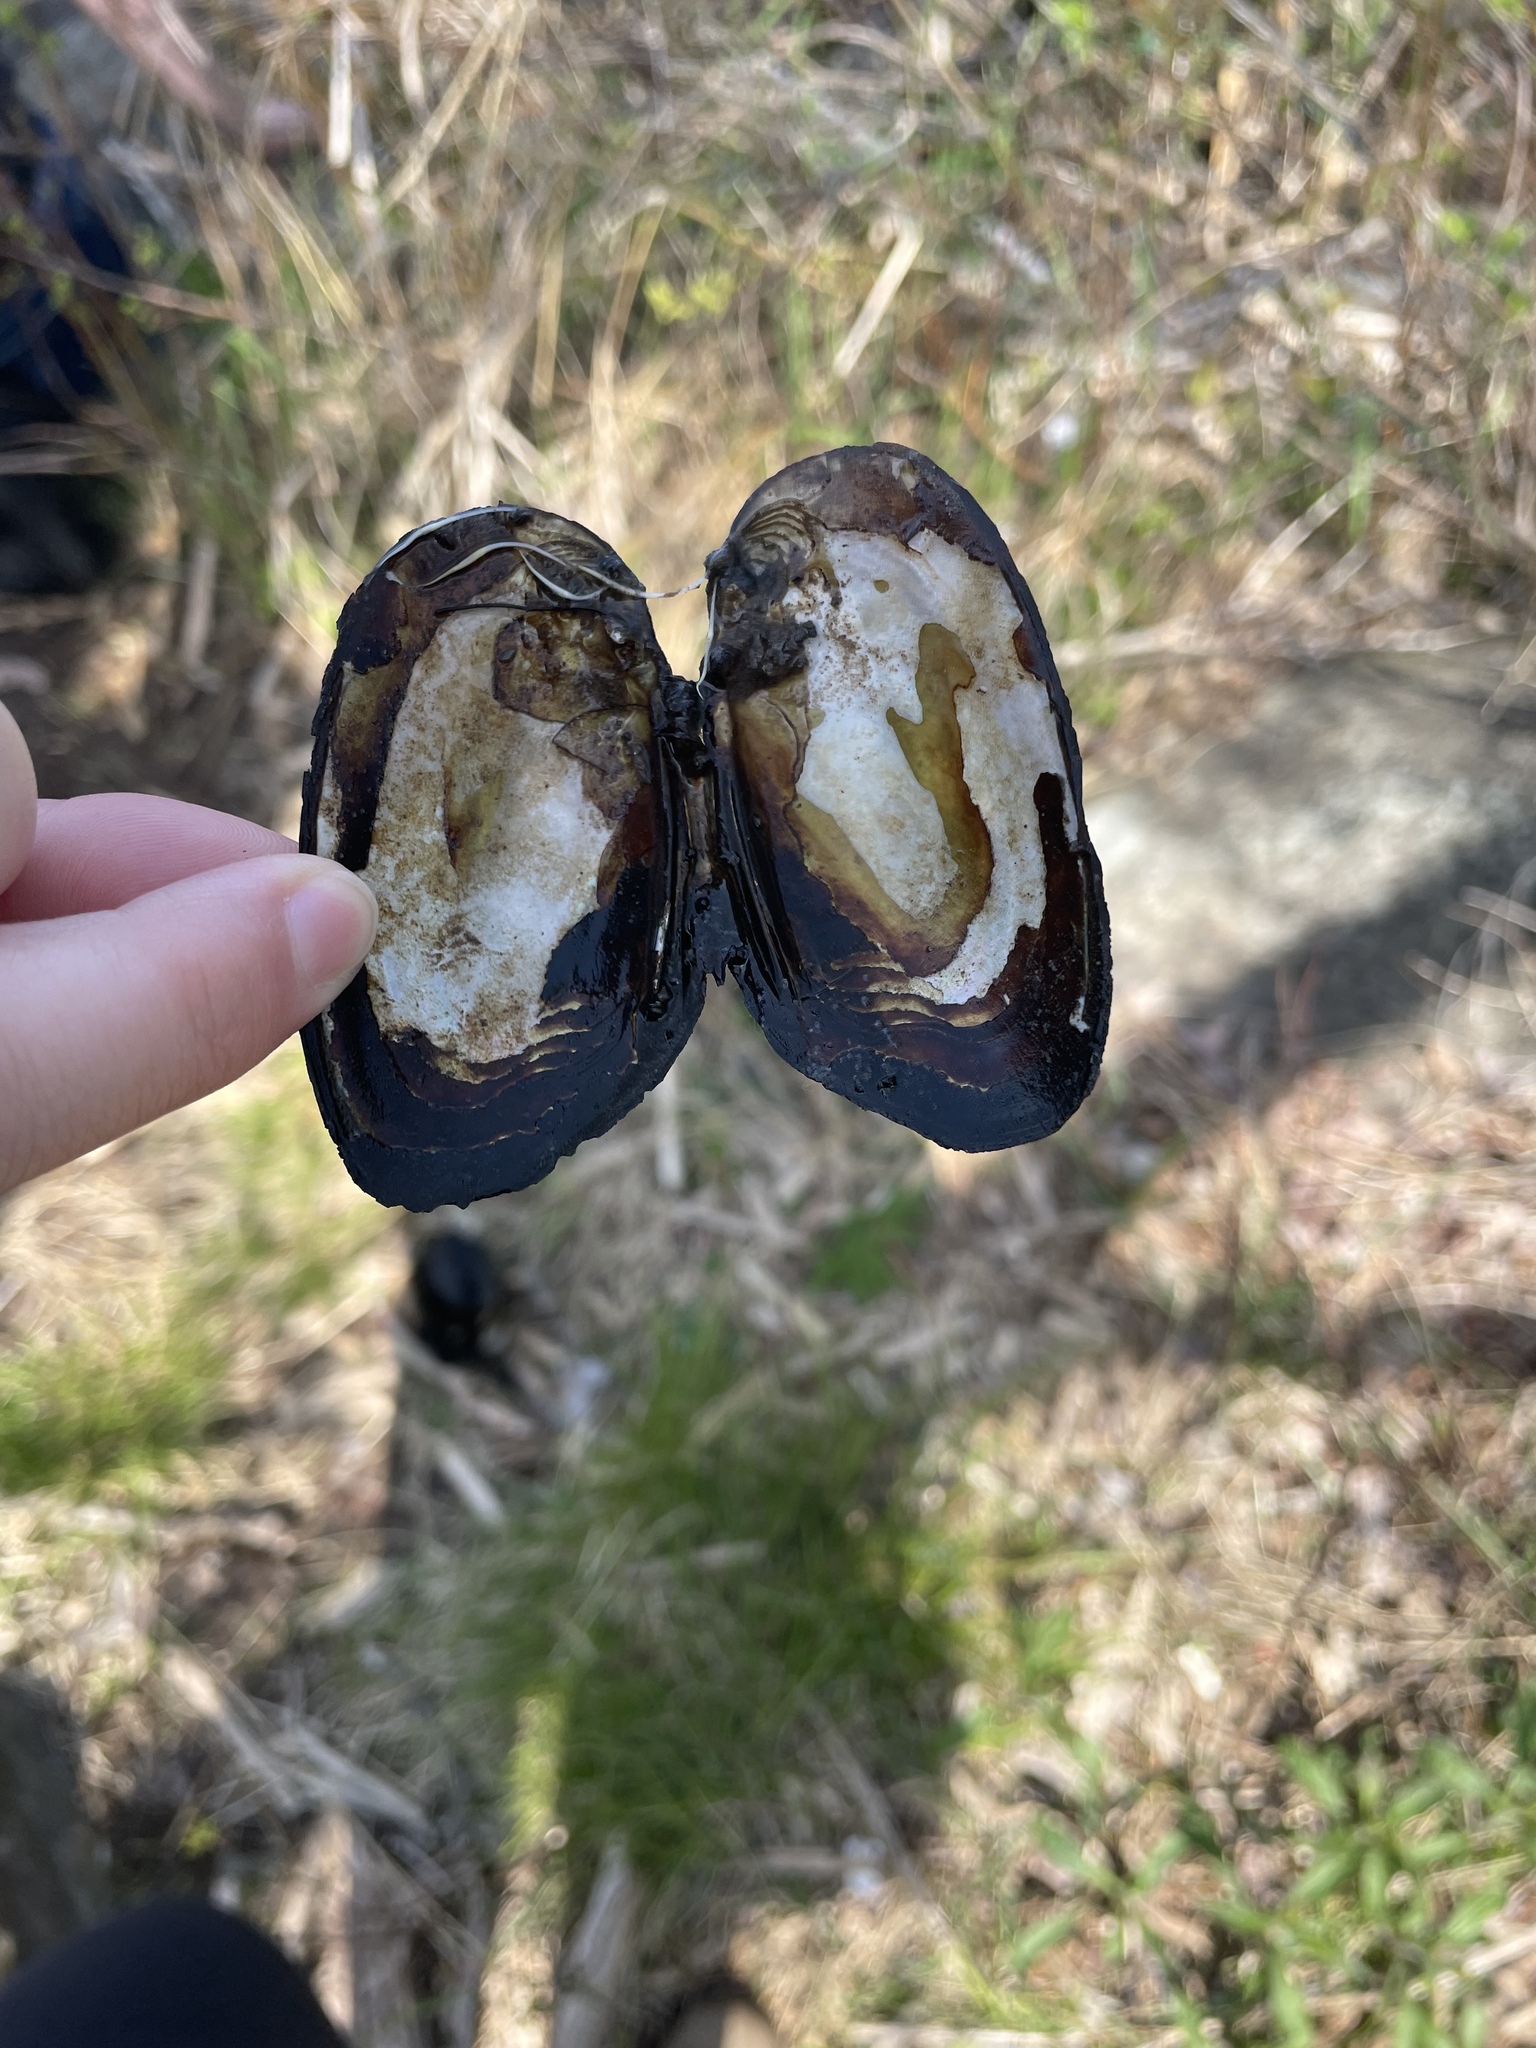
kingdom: Animalia
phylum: Mollusca
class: Bivalvia
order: Unionida
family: Unionidae
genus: Elliptio
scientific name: Elliptio complanata
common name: Eastern elliptio
